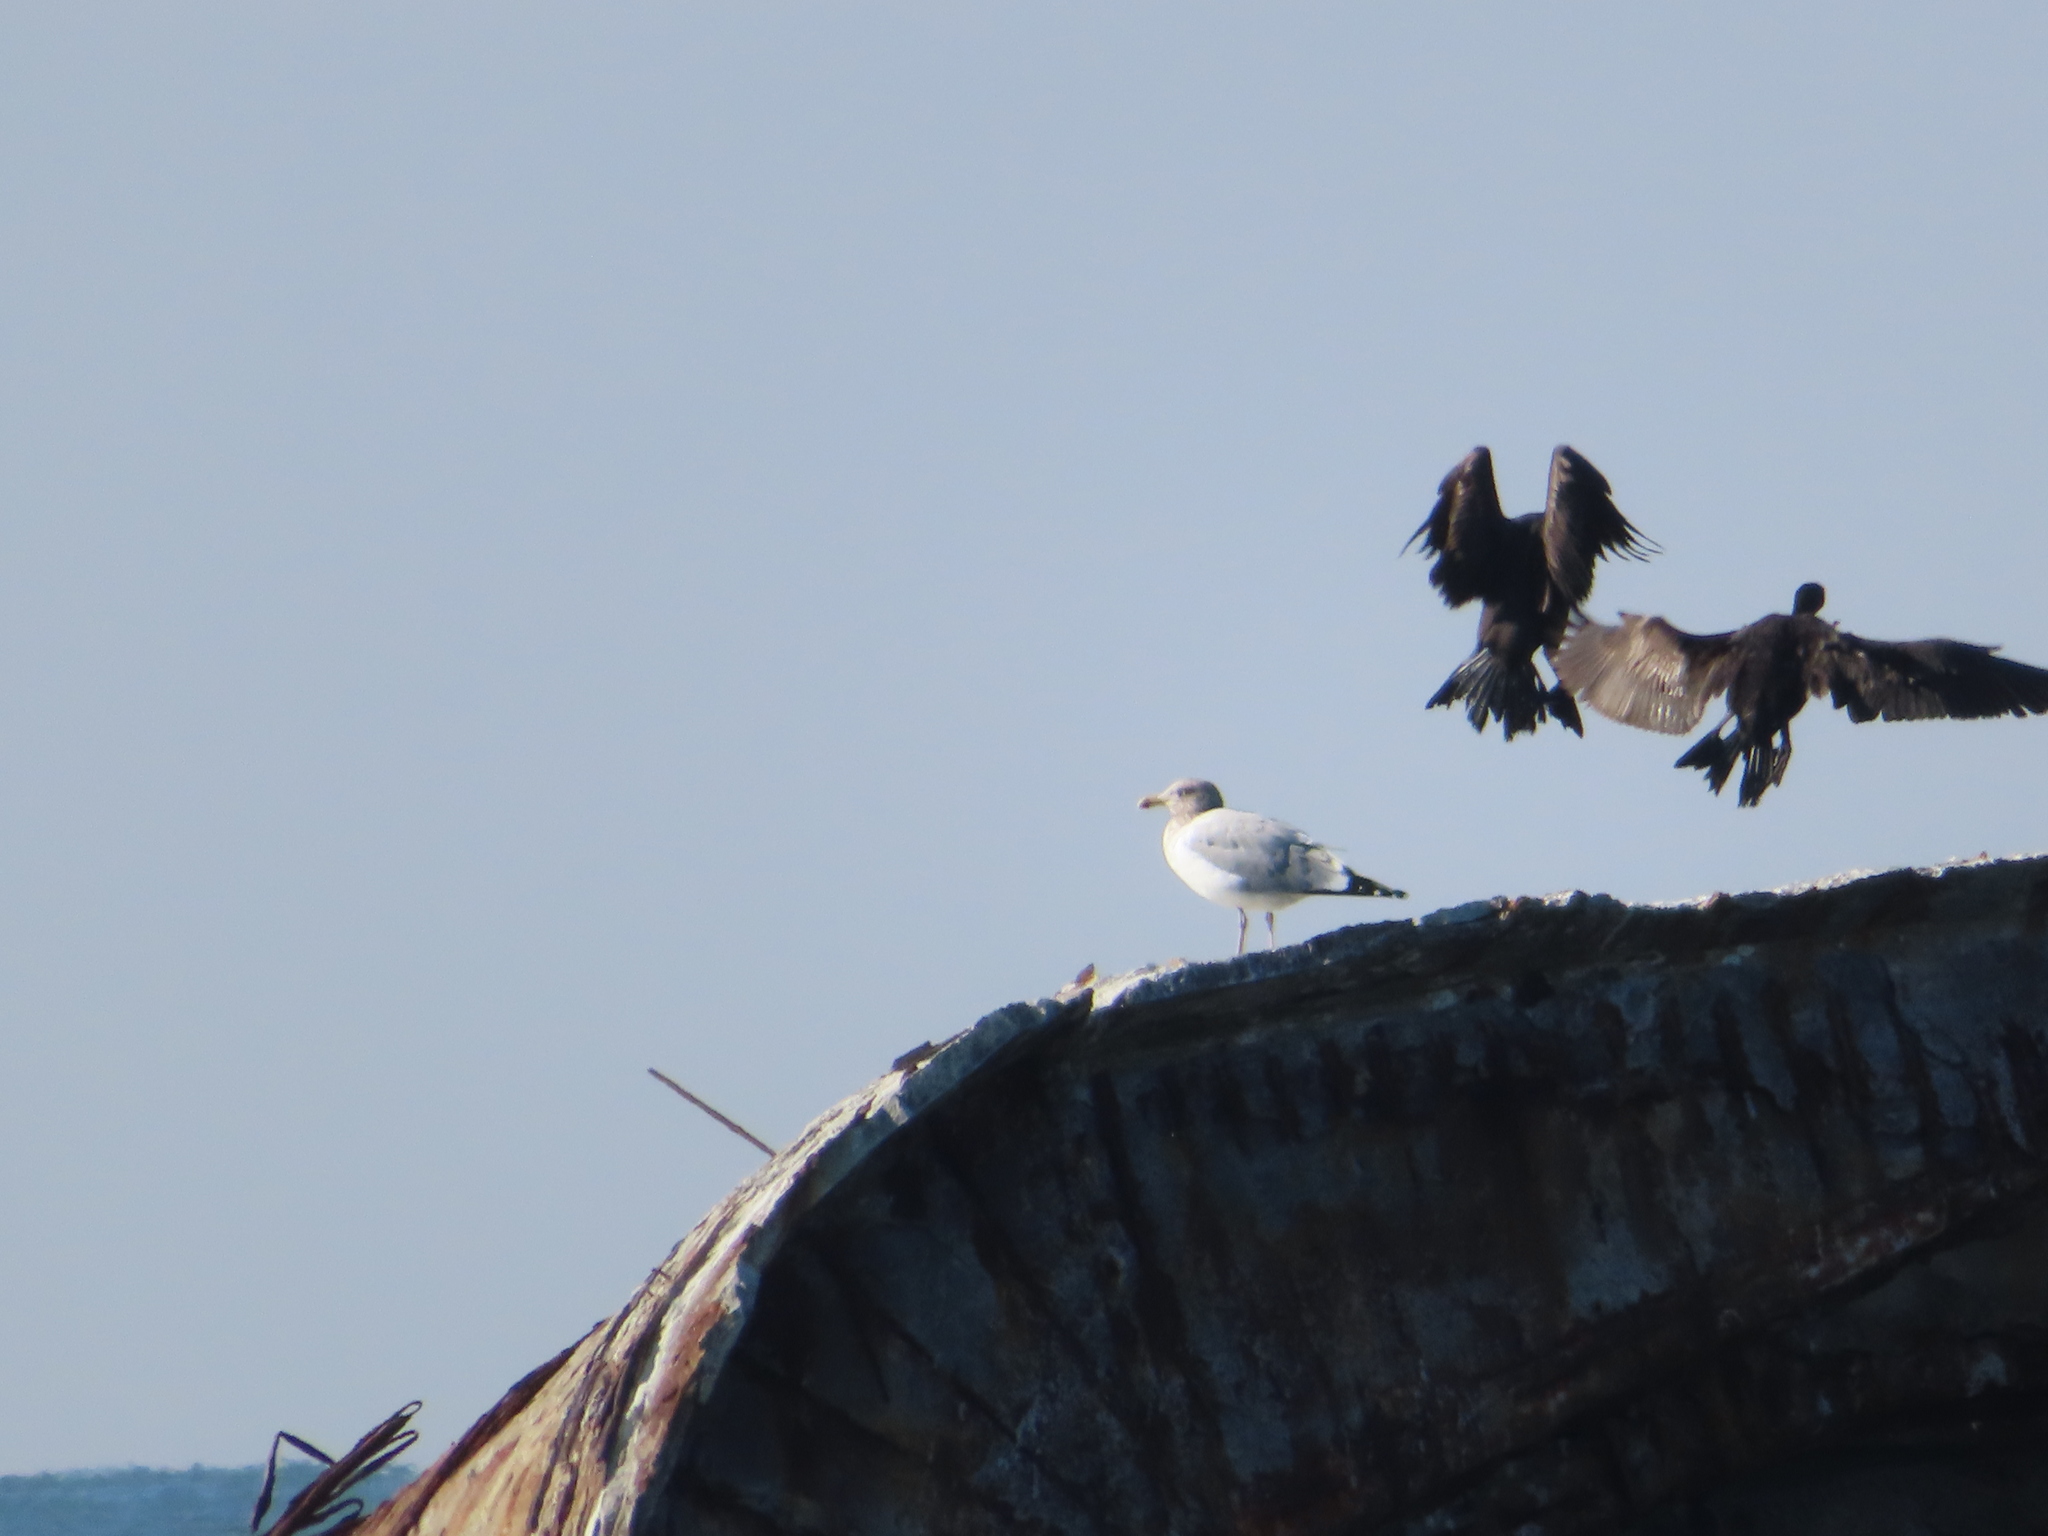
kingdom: Animalia
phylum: Chordata
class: Aves
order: Suliformes
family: Phalacrocoracidae
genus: Phalacrocorax
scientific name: Phalacrocorax auritus
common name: Double-crested cormorant
